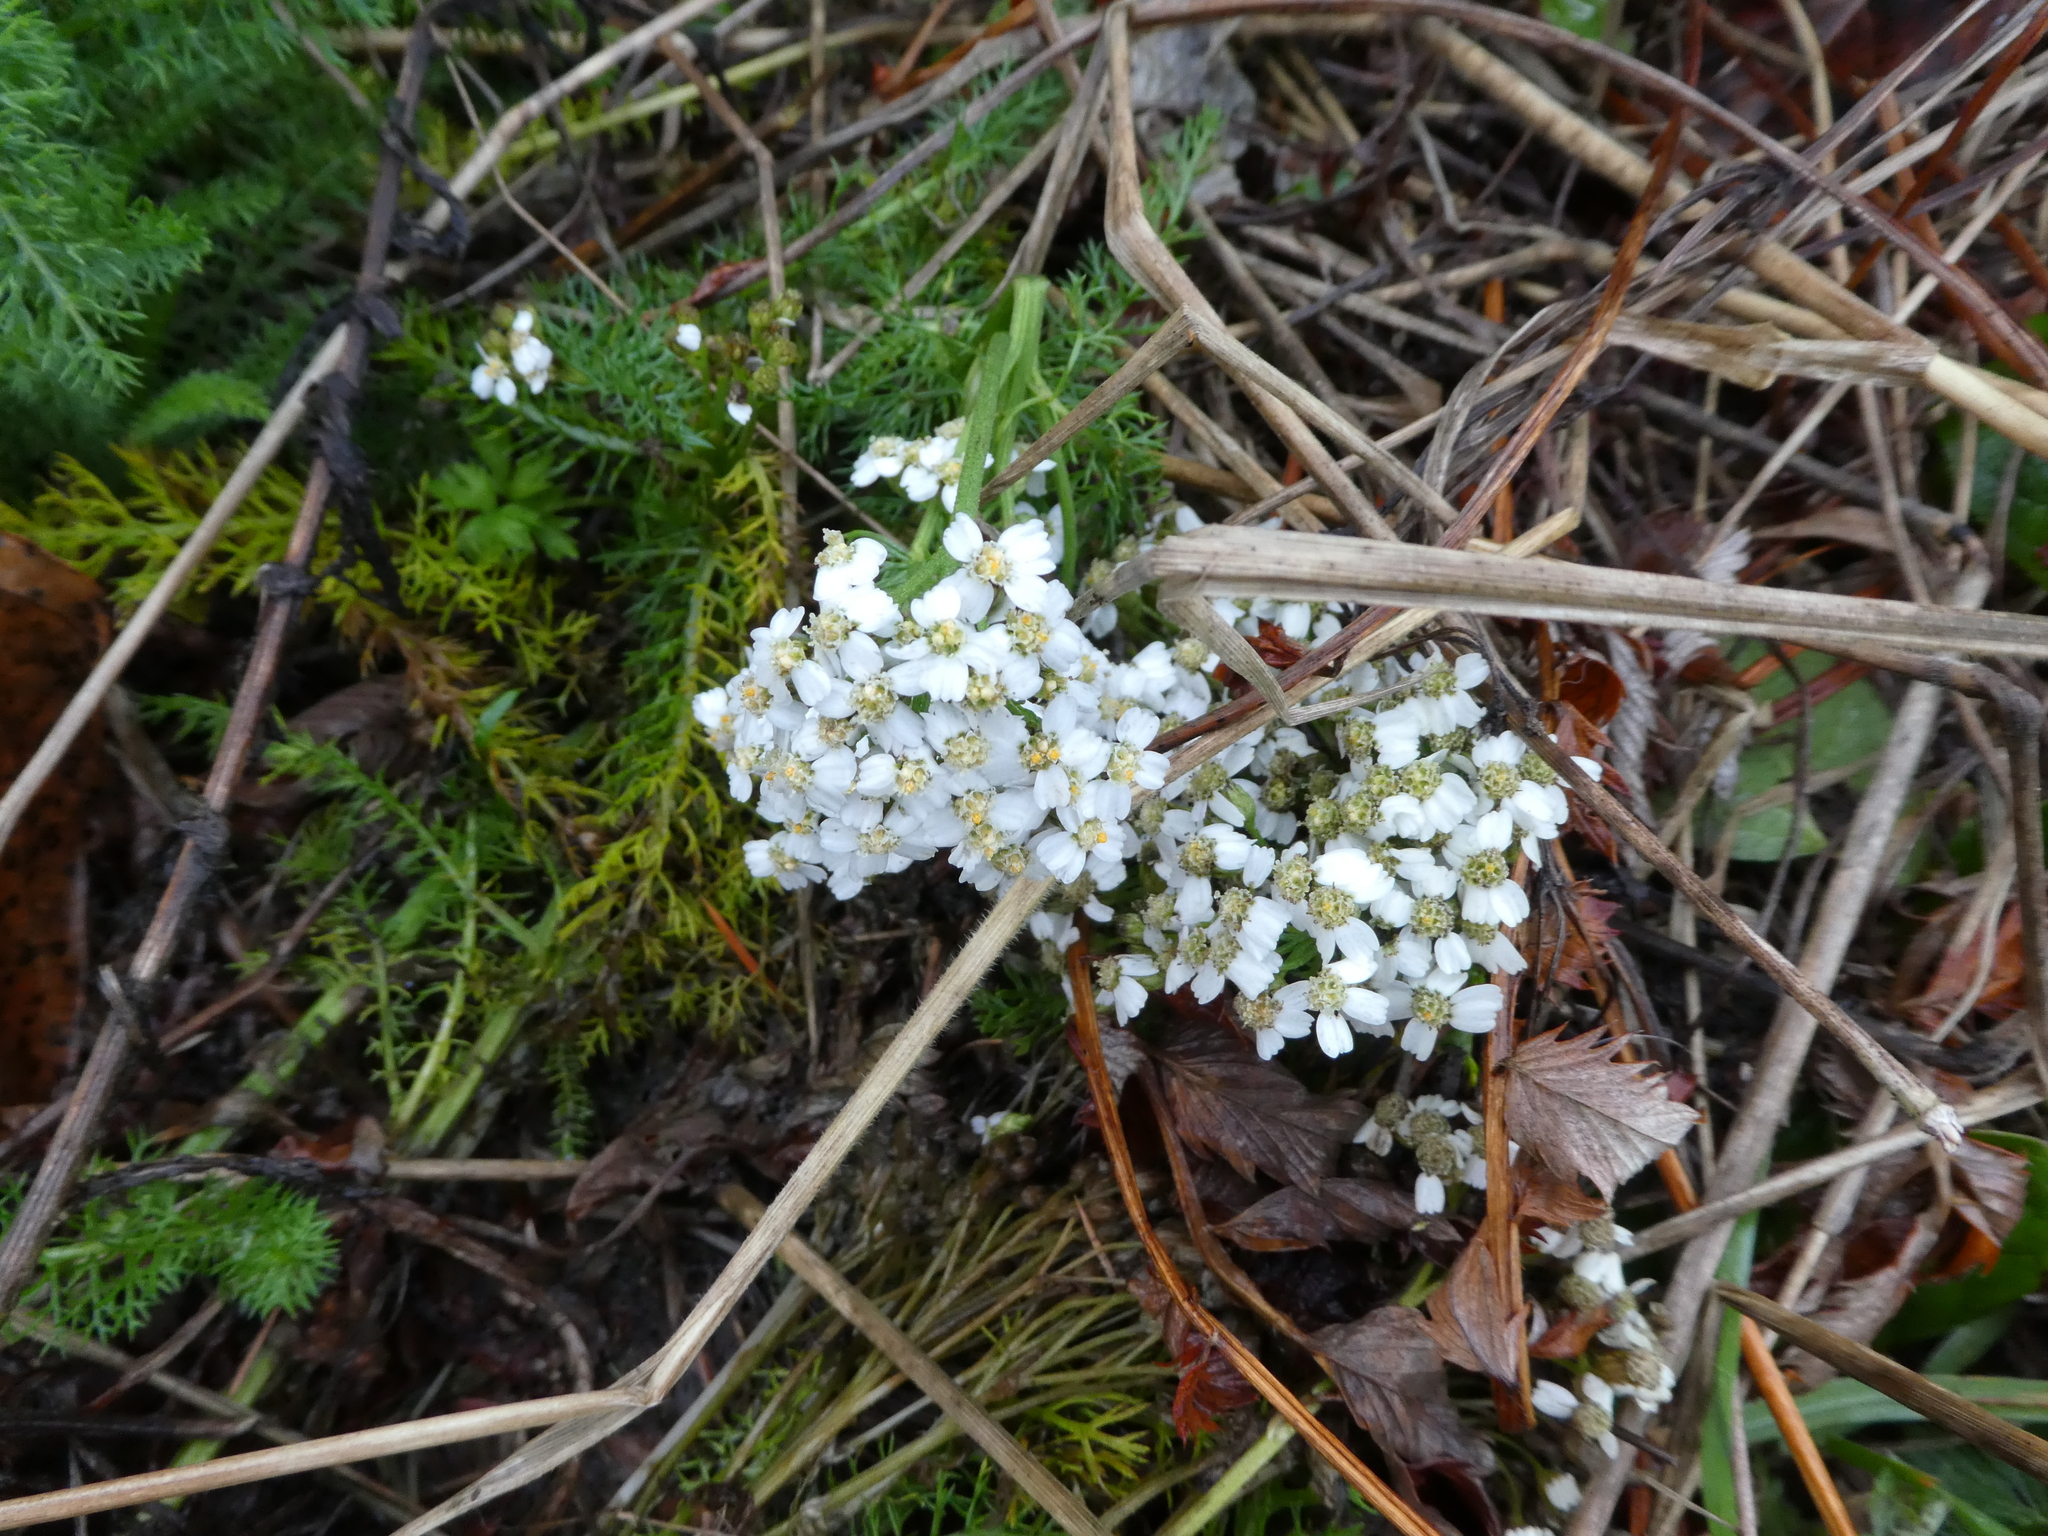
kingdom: Plantae
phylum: Tracheophyta
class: Magnoliopsida
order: Asterales
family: Asteraceae
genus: Achillea
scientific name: Achillea millefolium
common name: Yarrow
